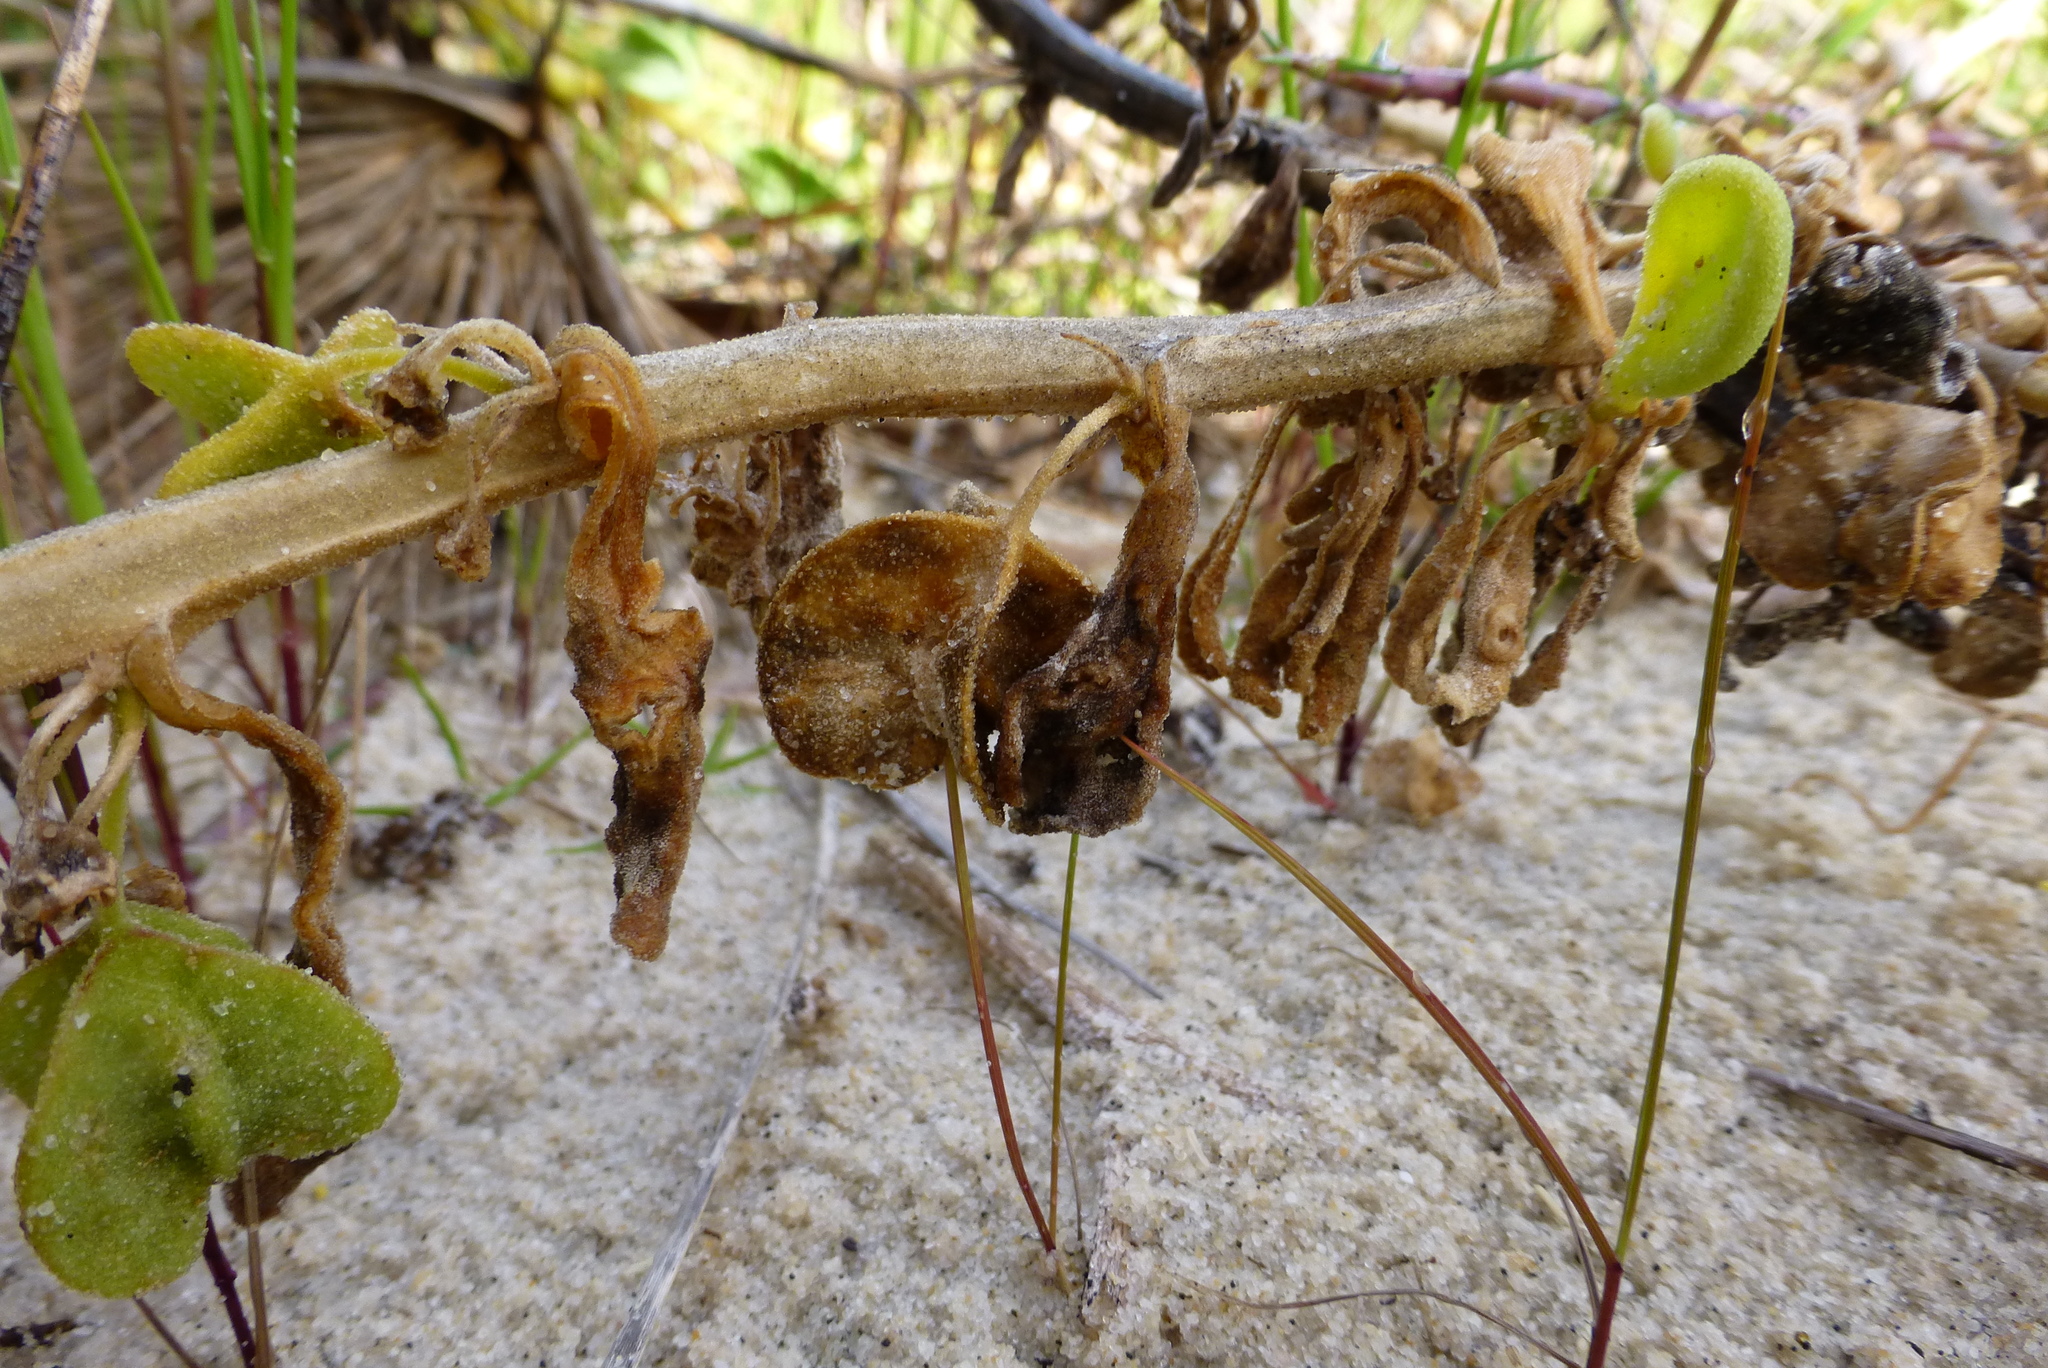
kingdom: Plantae
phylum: Tracheophyta
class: Magnoliopsida
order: Caryophyllales
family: Aizoaceae
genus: Tetragonia
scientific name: Tetragonia decumbens
